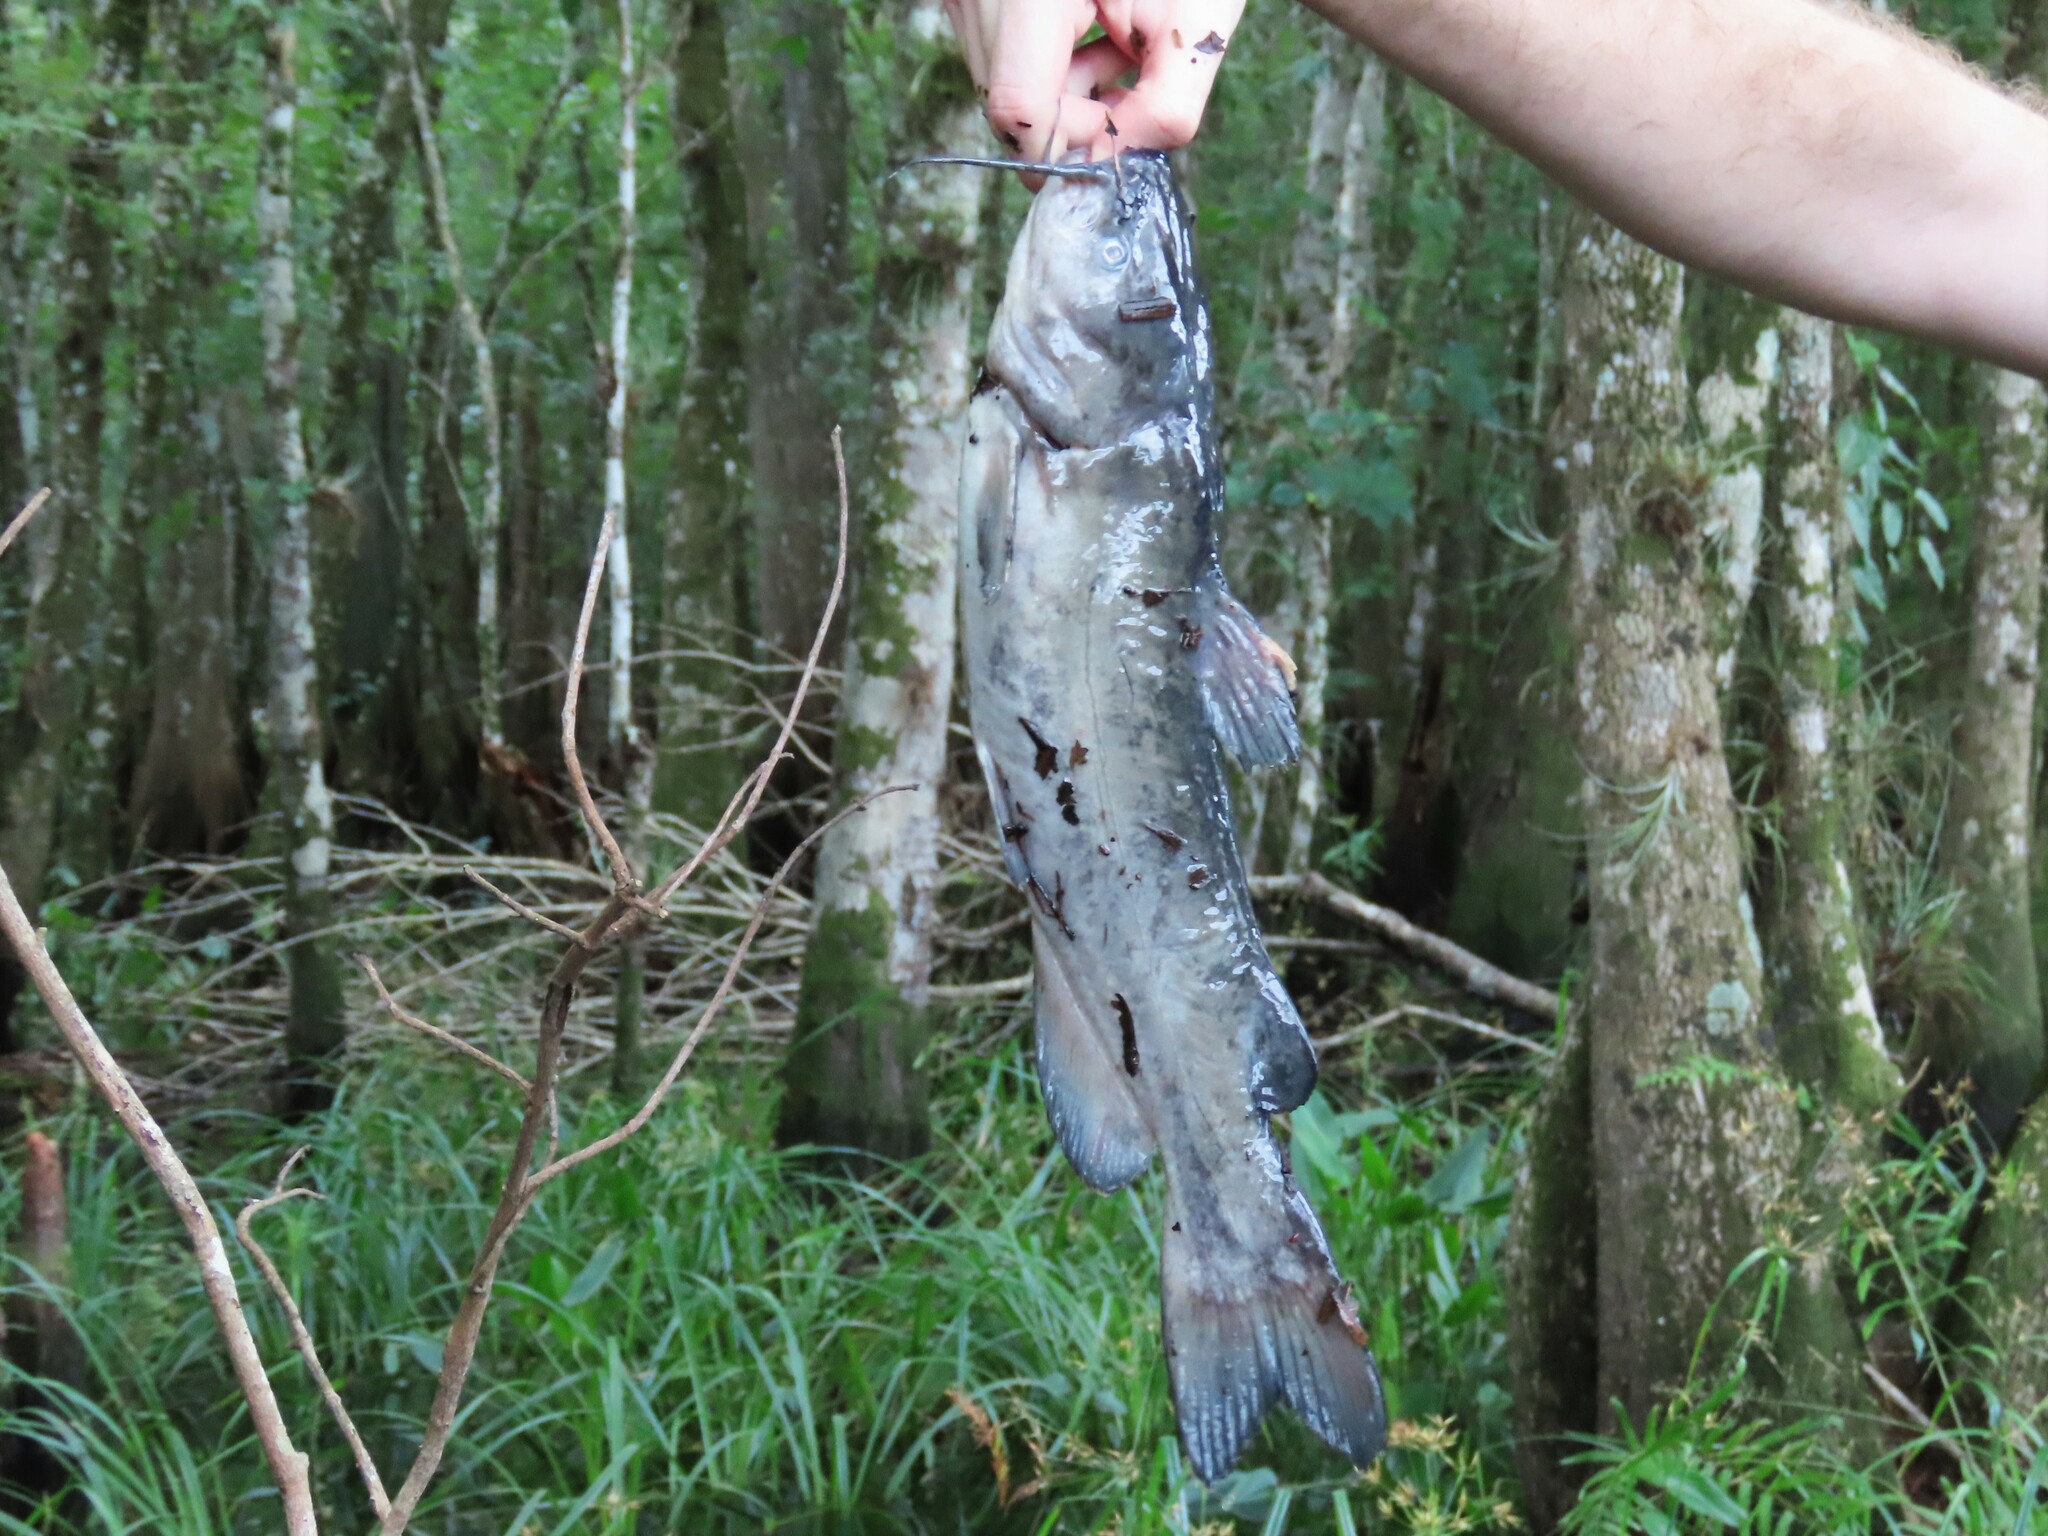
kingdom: Animalia
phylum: Chordata
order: Siluriformes
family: Ictaluridae
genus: Ameiurus
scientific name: Ameiurus catus
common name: White catfish
